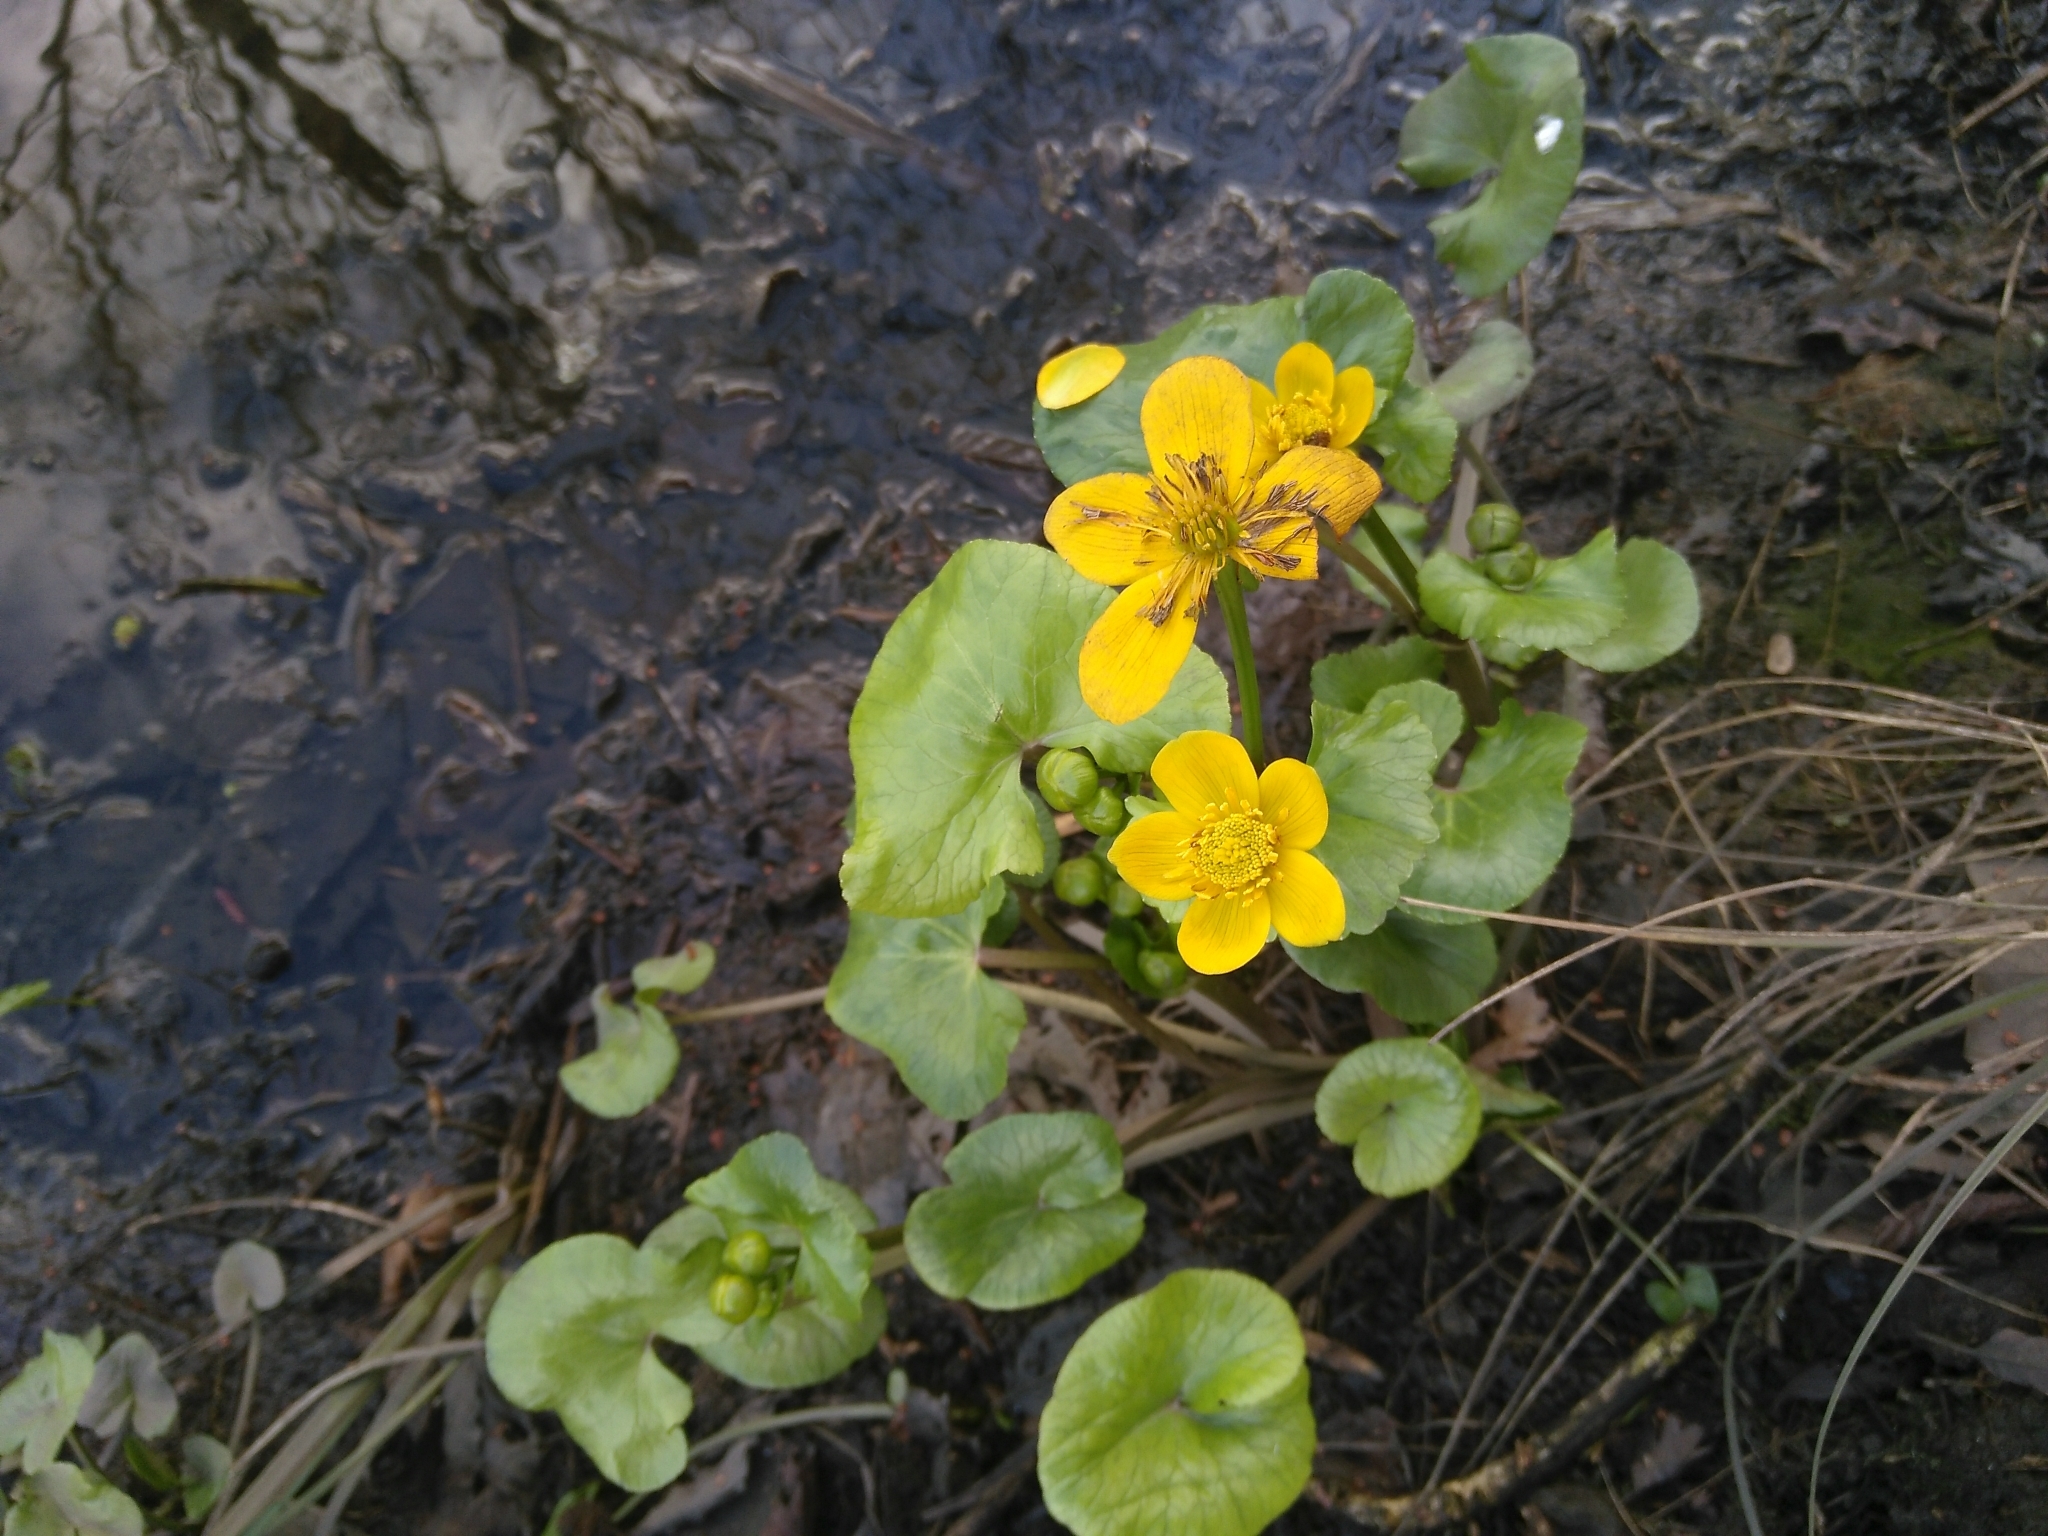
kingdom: Plantae
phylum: Tracheophyta
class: Magnoliopsida
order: Ranunculales
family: Ranunculaceae
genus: Caltha
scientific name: Caltha palustris
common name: Marsh marigold
